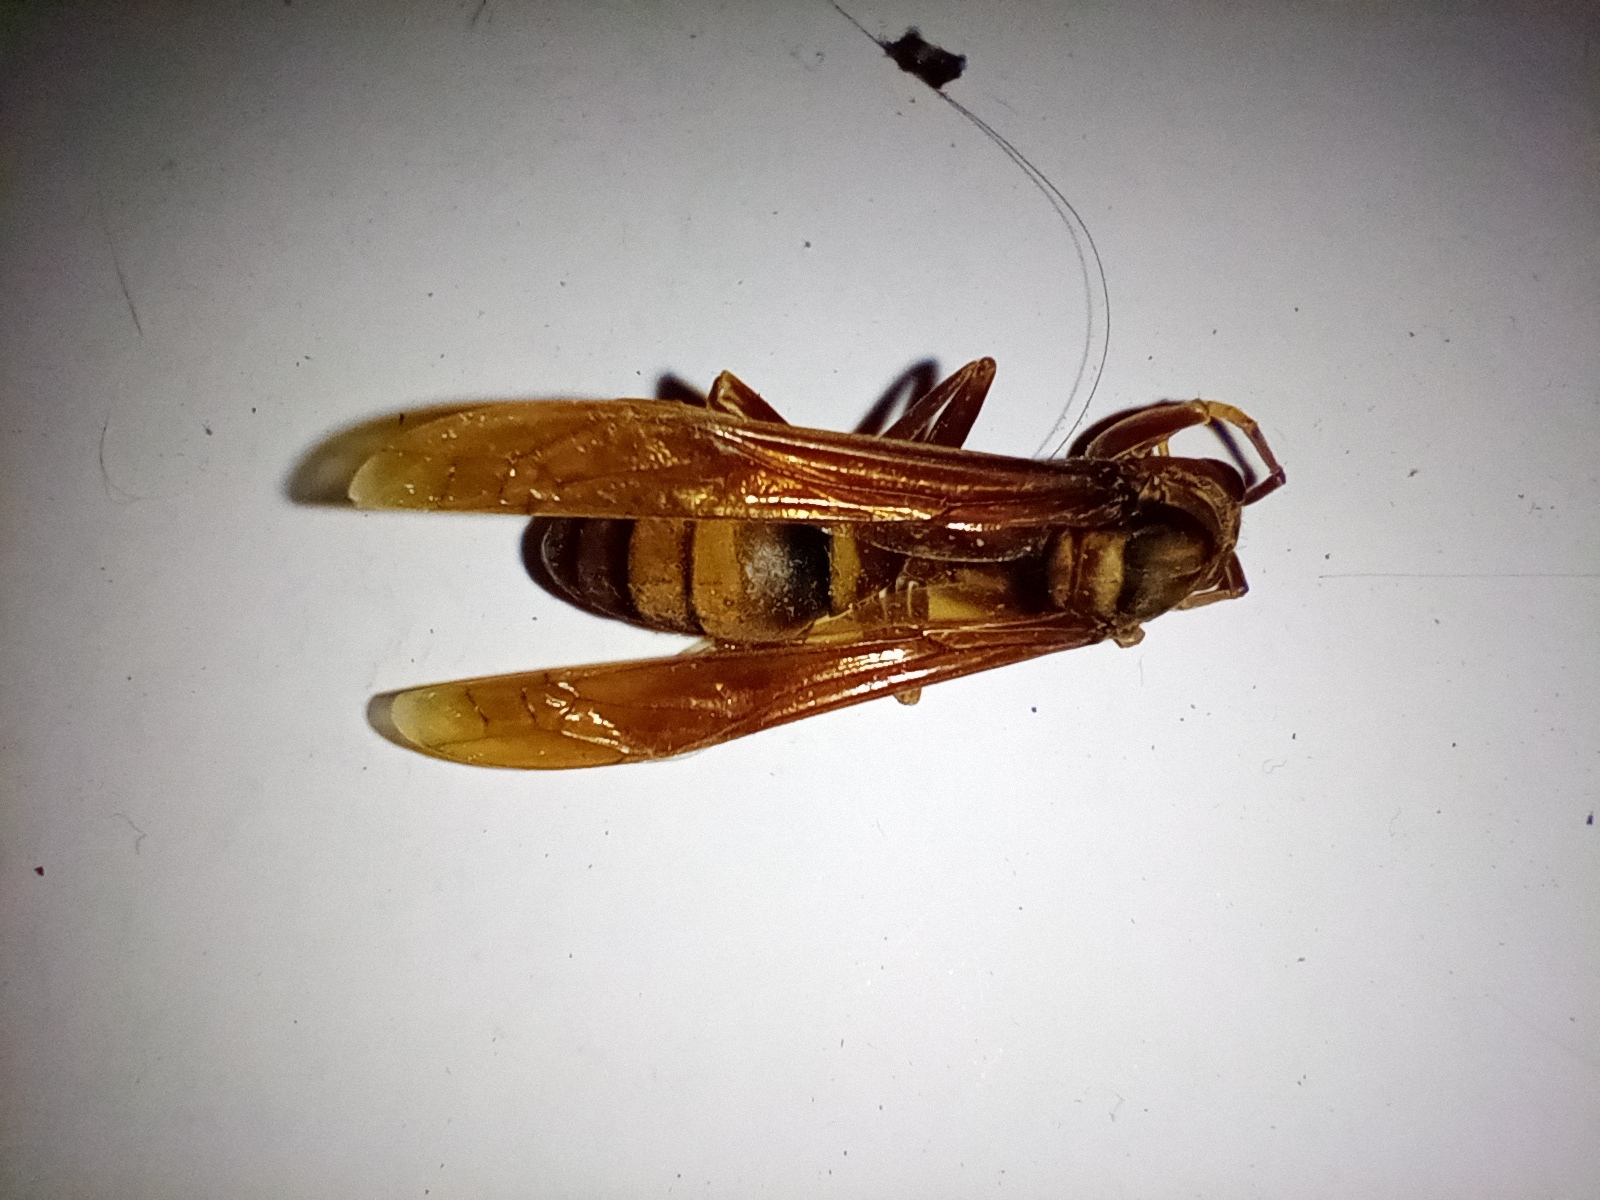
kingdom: Animalia
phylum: Arthropoda
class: Insecta
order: Hymenoptera
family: Eumenidae
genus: Polistes
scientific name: Polistes carnifex
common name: Paper wasp
